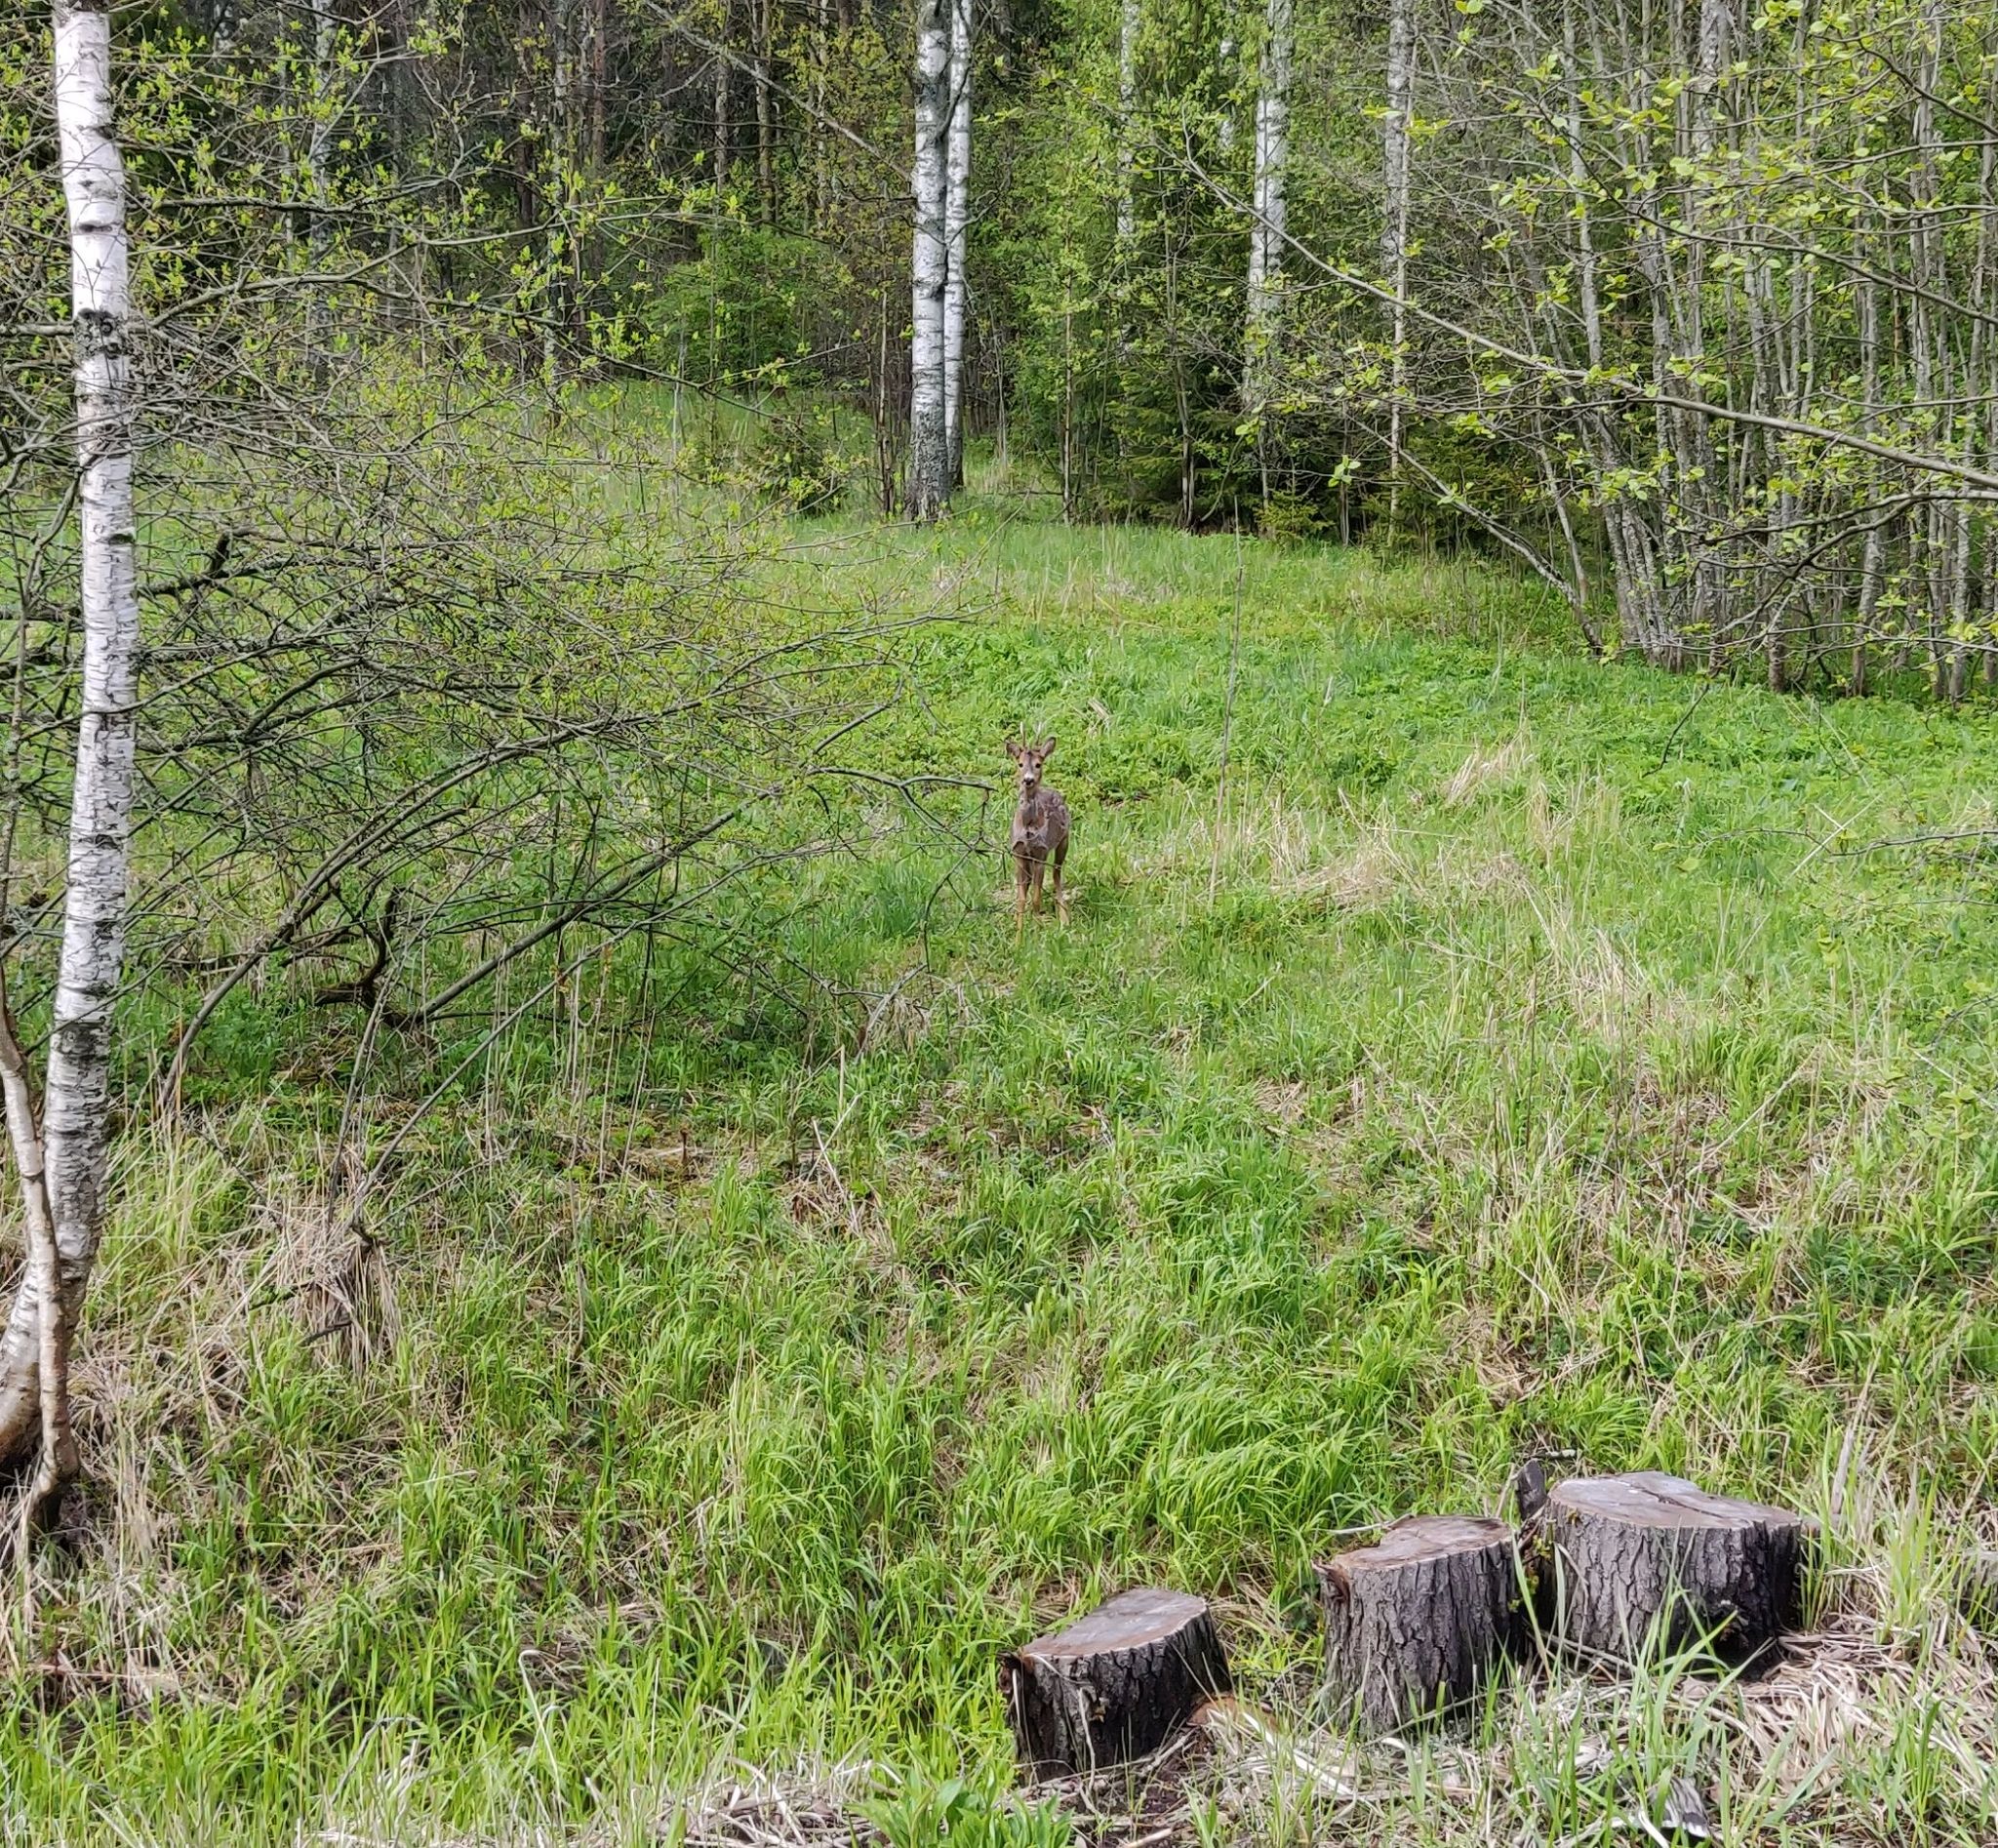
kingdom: Animalia
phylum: Chordata
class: Mammalia
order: Artiodactyla
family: Cervidae
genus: Capreolus
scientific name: Capreolus capreolus
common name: Western roe deer
